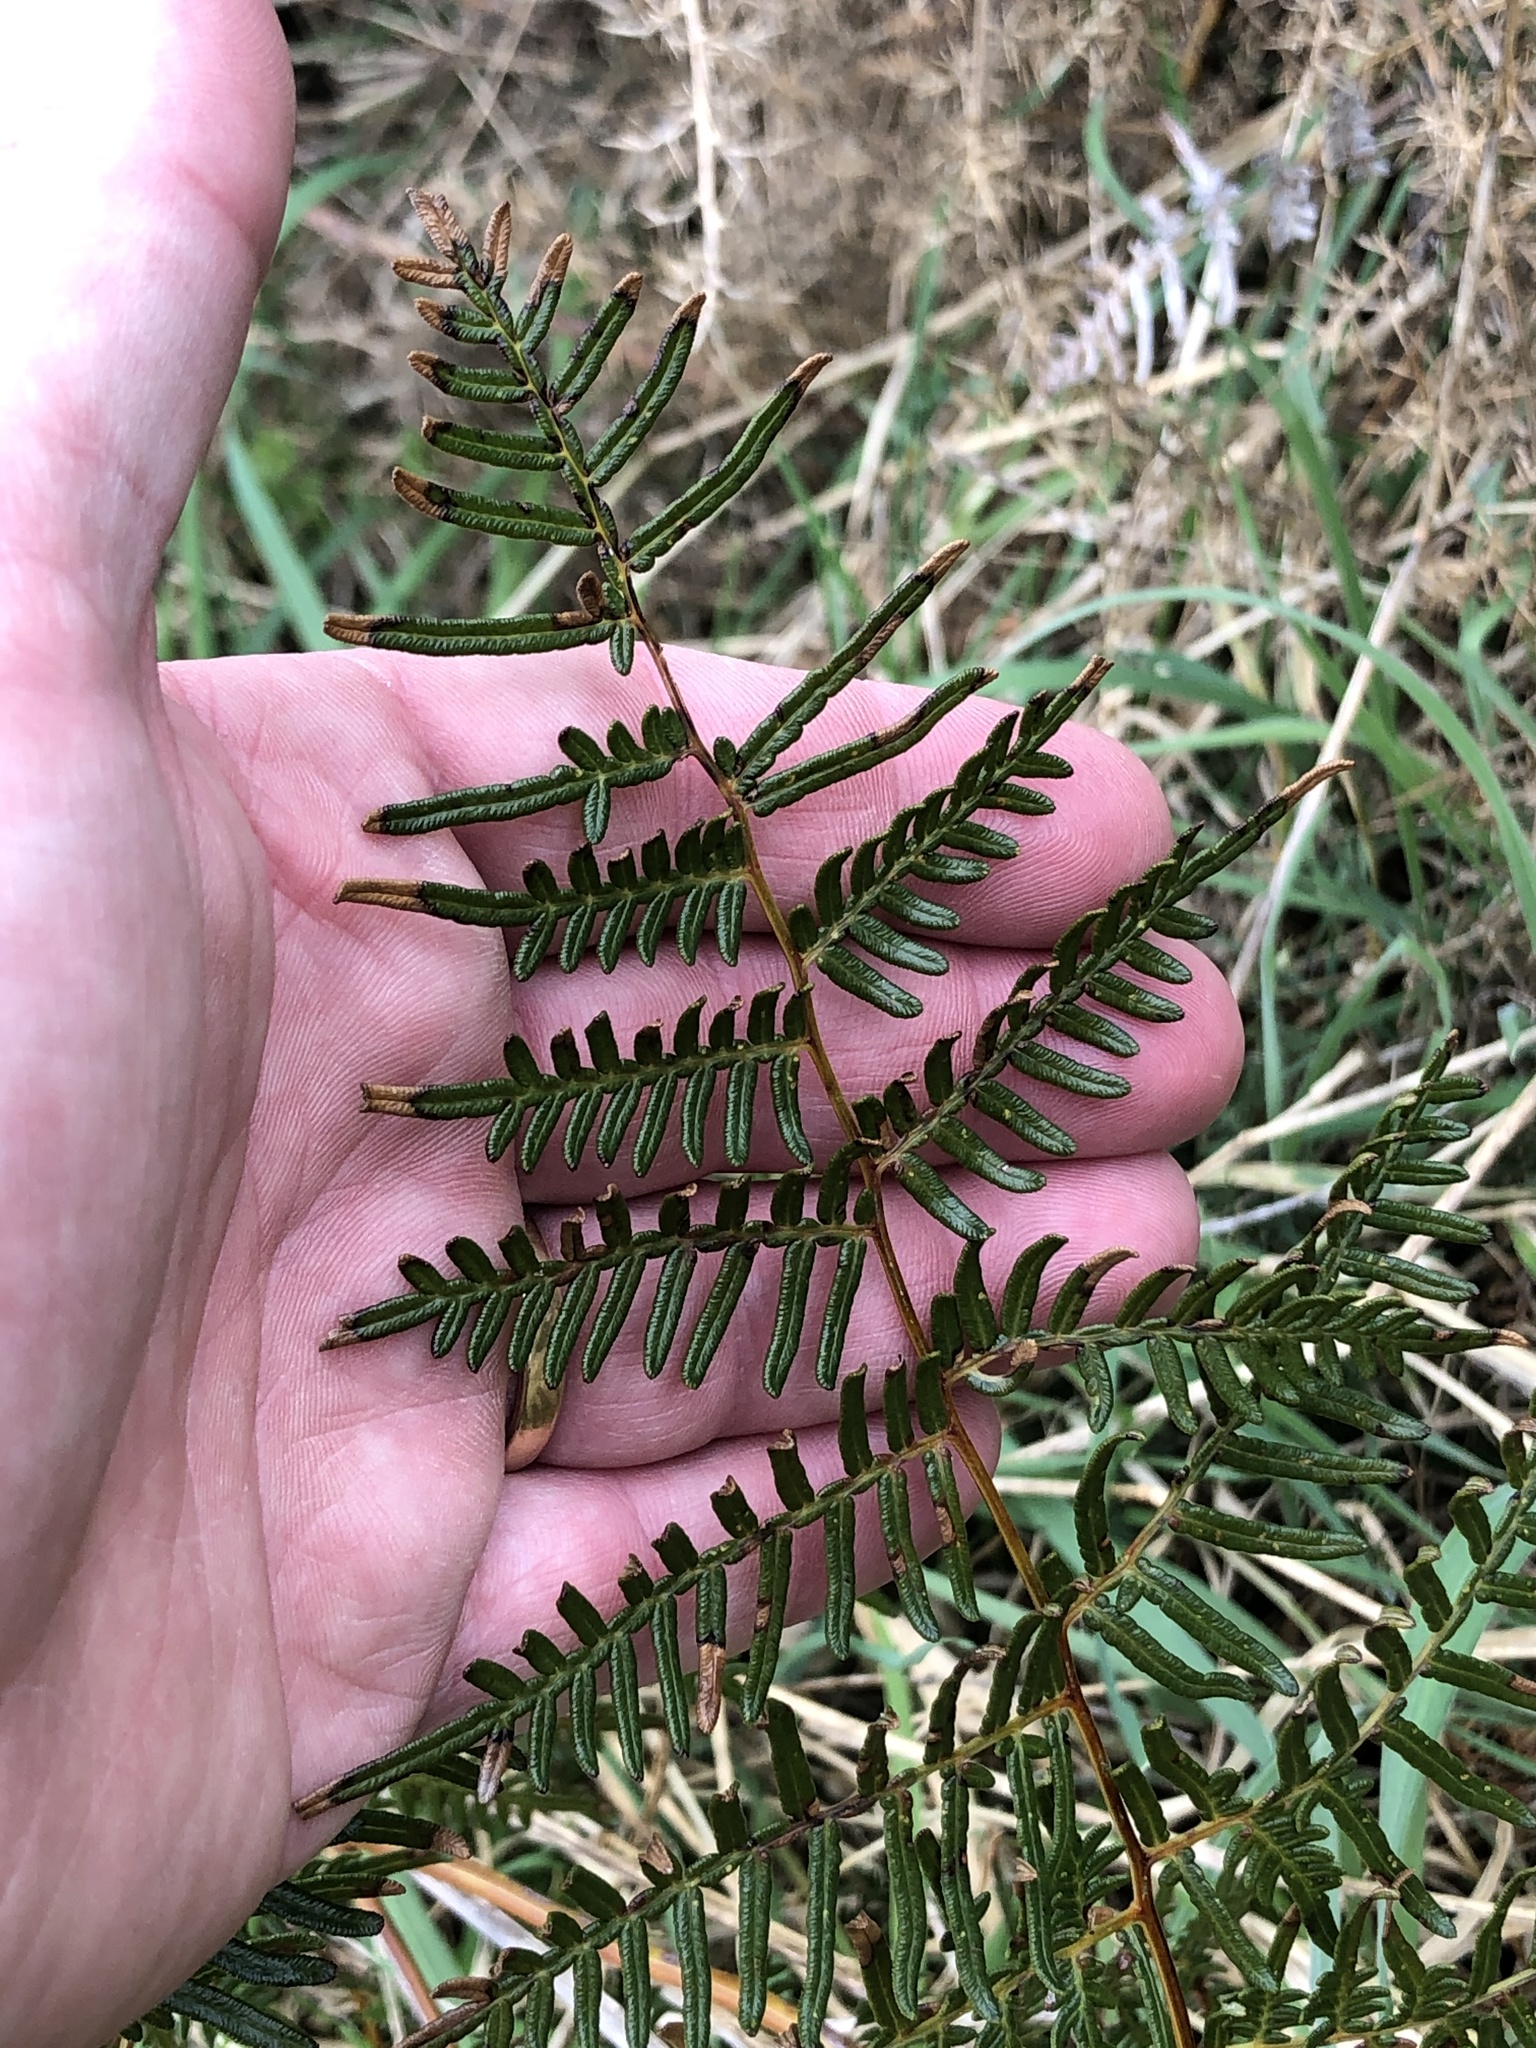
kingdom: Plantae
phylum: Tracheophyta
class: Polypodiopsida
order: Polypodiales
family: Dennstaedtiaceae
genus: Pteridium
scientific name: Pteridium esculentum
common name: Bracken fern
